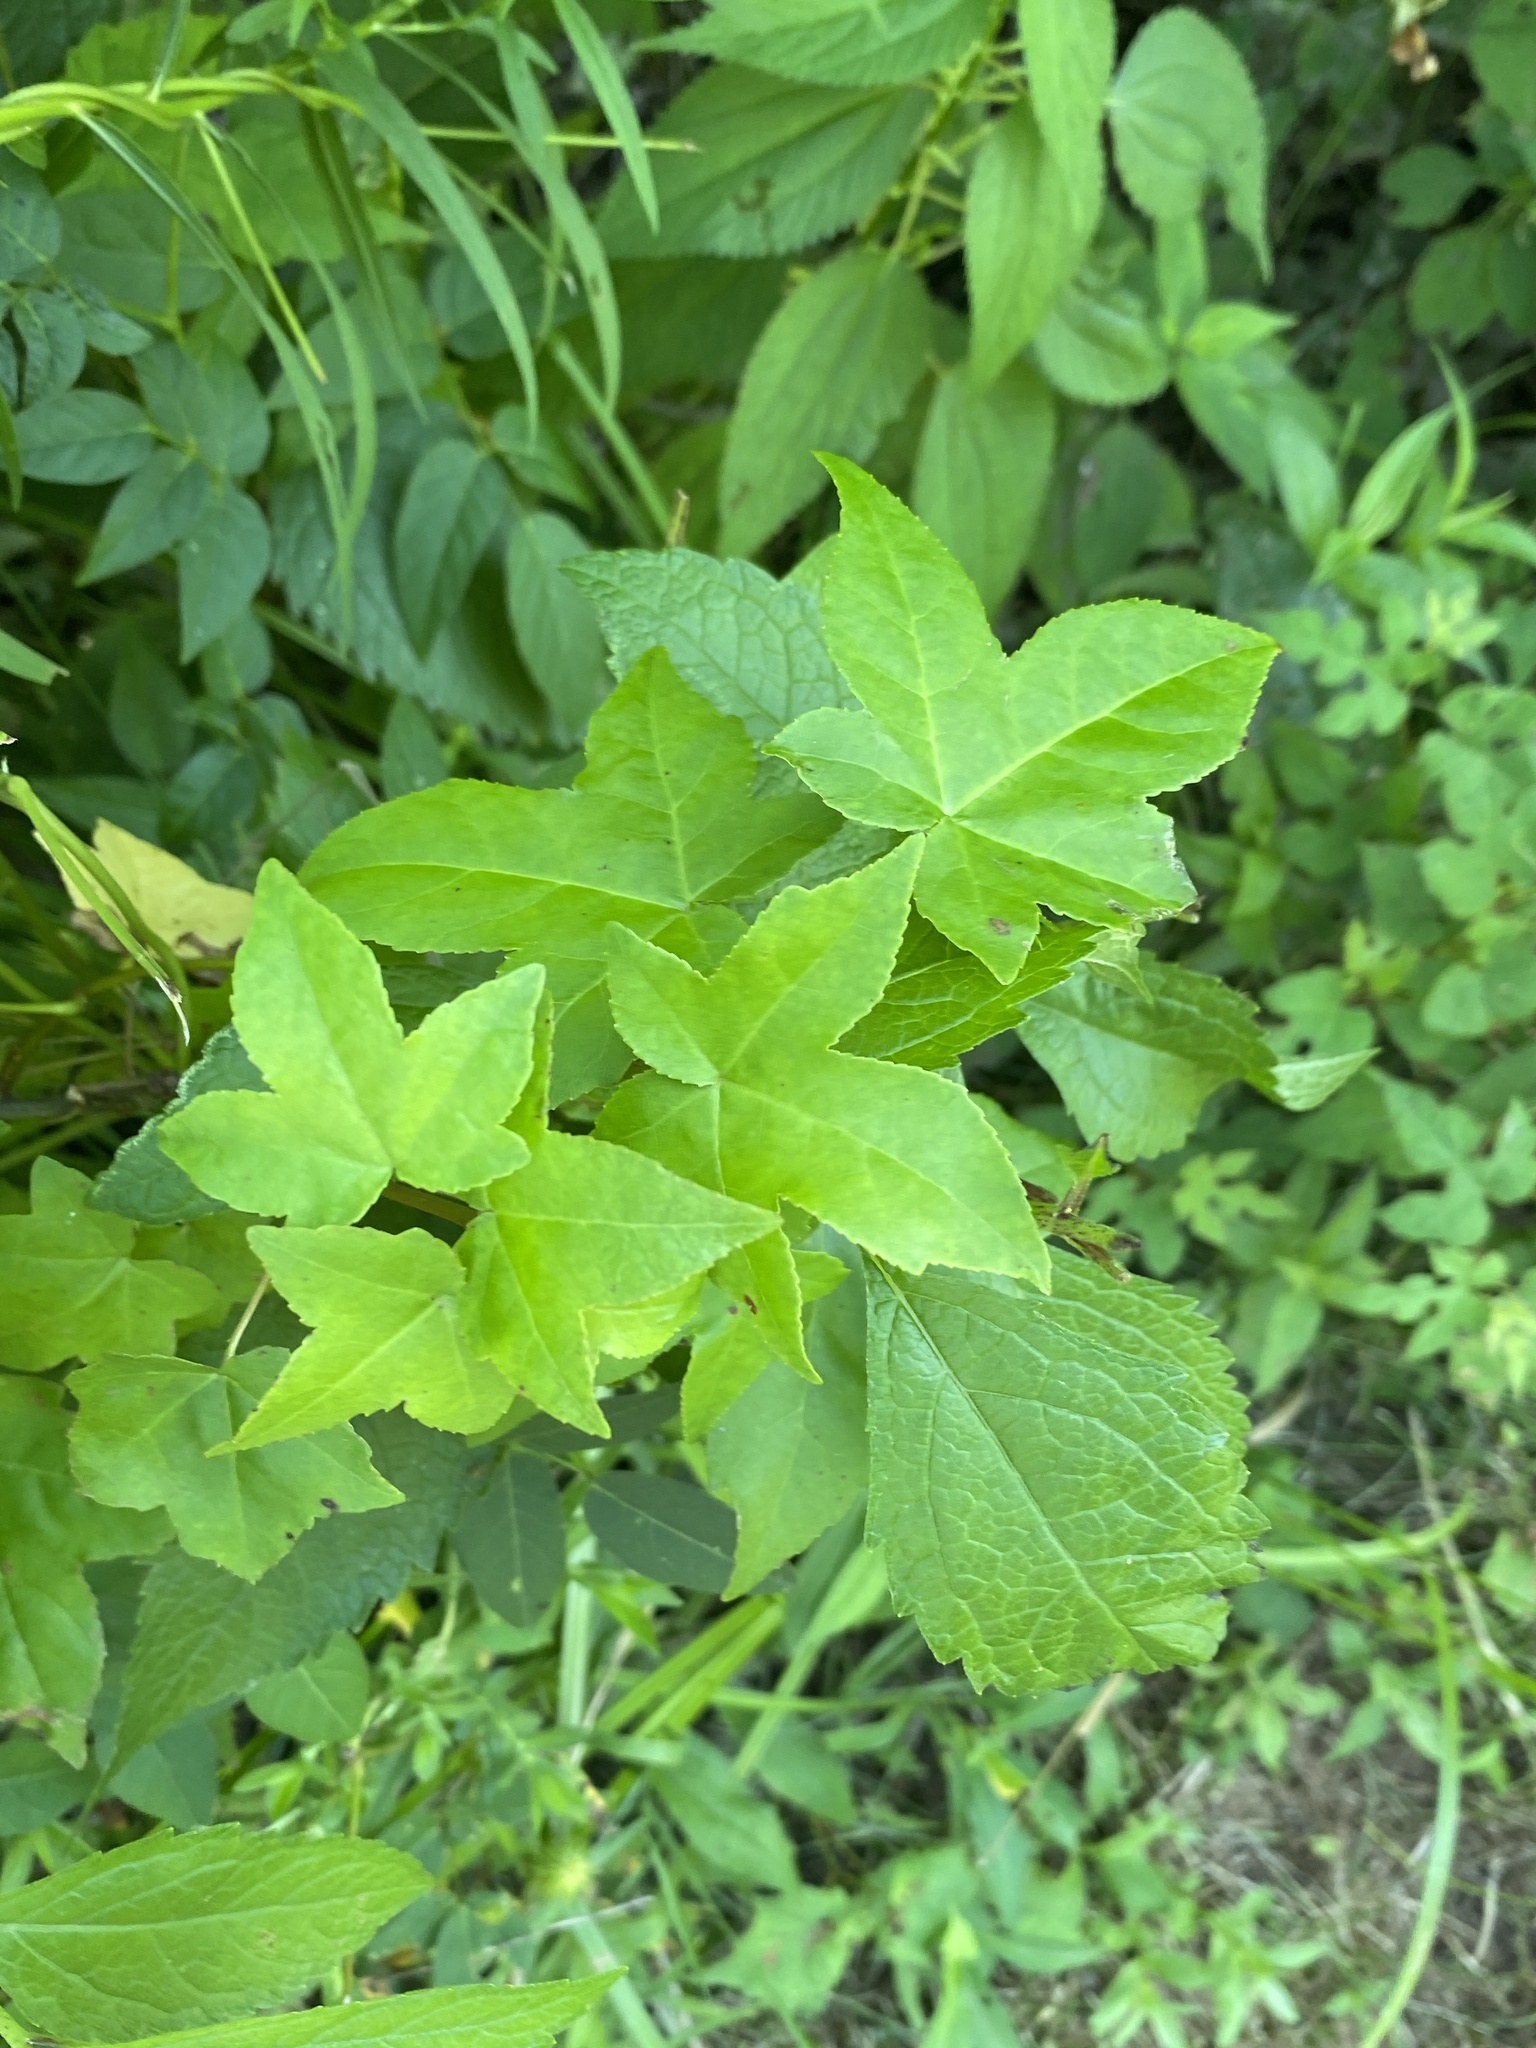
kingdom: Plantae
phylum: Tracheophyta
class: Magnoliopsida
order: Saxifragales
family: Altingiaceae
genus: Liquidambar
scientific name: Liquidambar styraciflua
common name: Sweet gum
